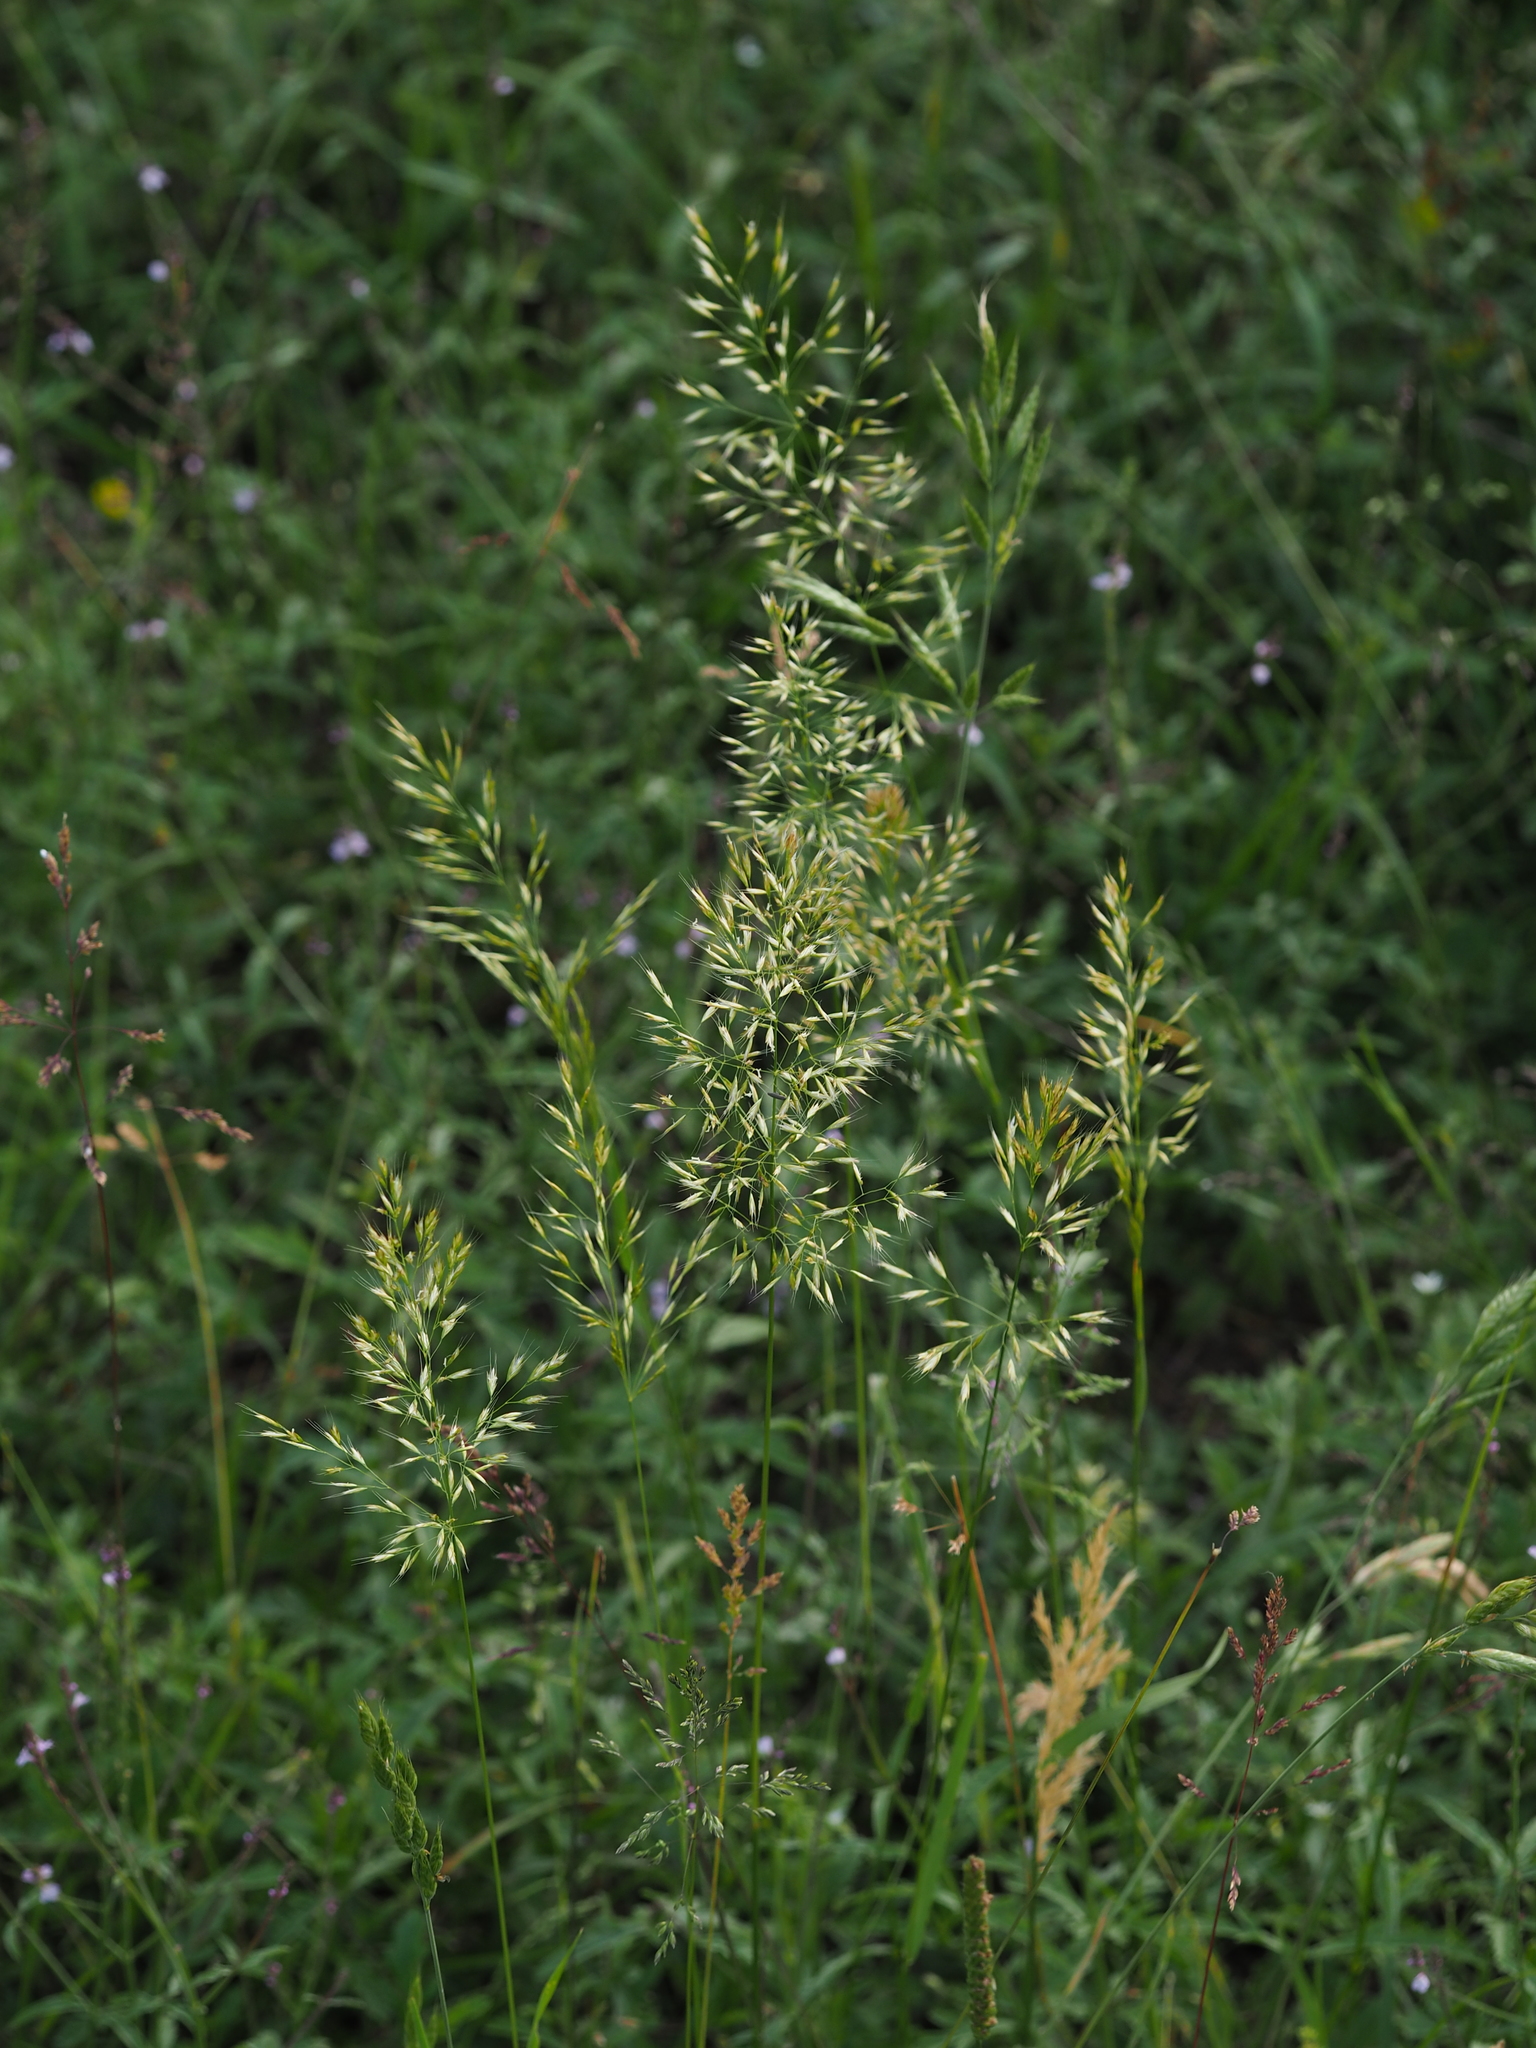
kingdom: Plantae
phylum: Tracheophyta
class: Liliopsida
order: Poales
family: Poaceae
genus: Trisetum
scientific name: Trisetum flavescens
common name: Yellow oat-grass
